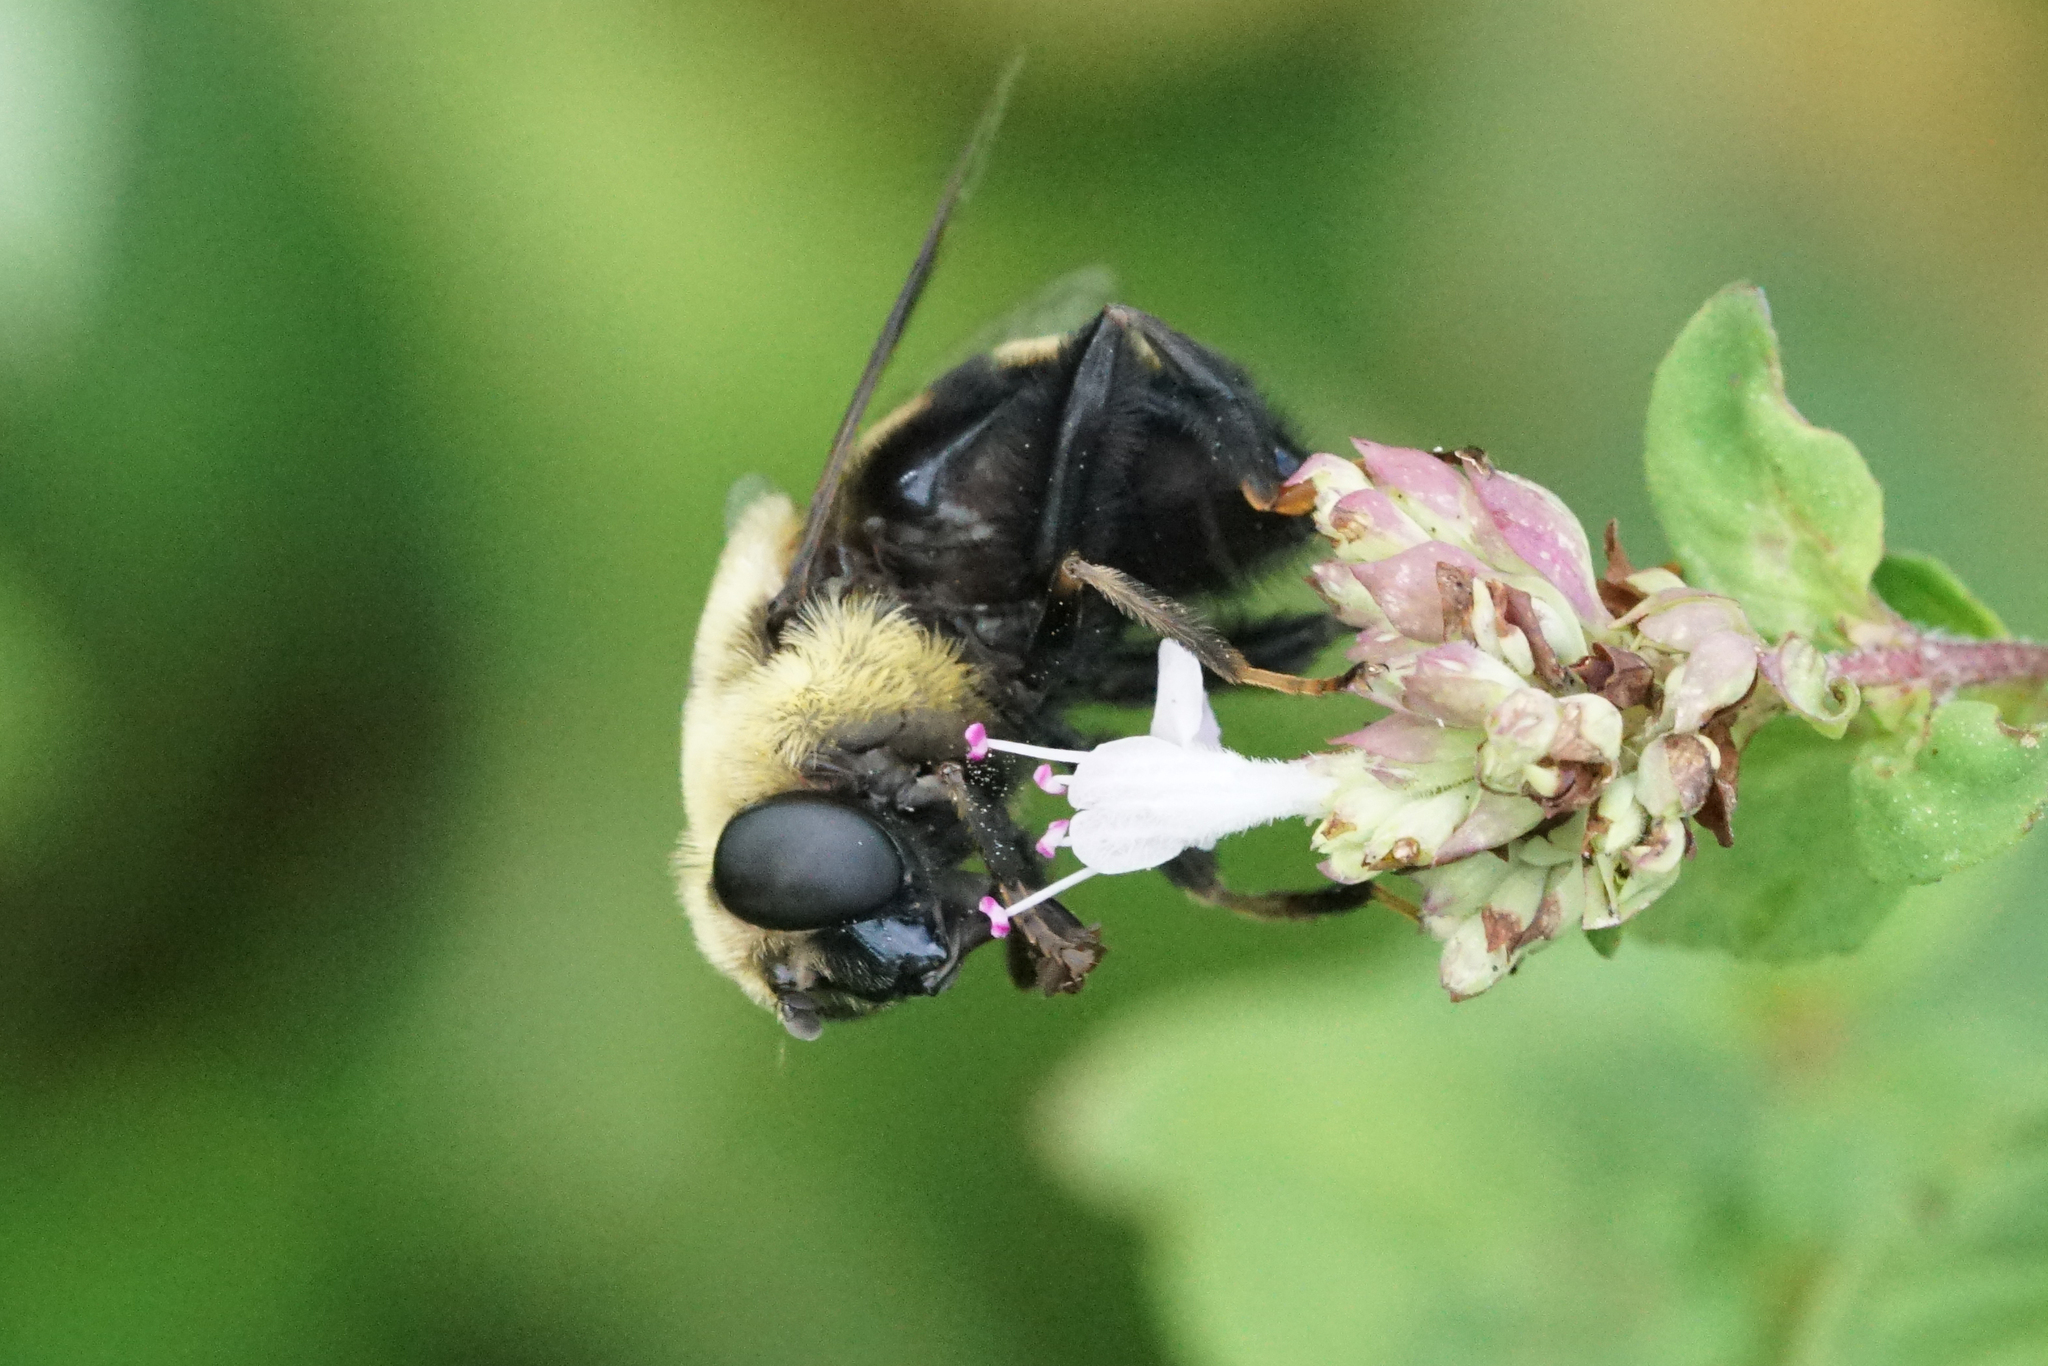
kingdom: Animalia
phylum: Arthropoda
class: Insecta
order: Diptera
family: Syrphidae
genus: Eristalis
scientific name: Eristalis flavipes
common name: Orange-legged drone fly
